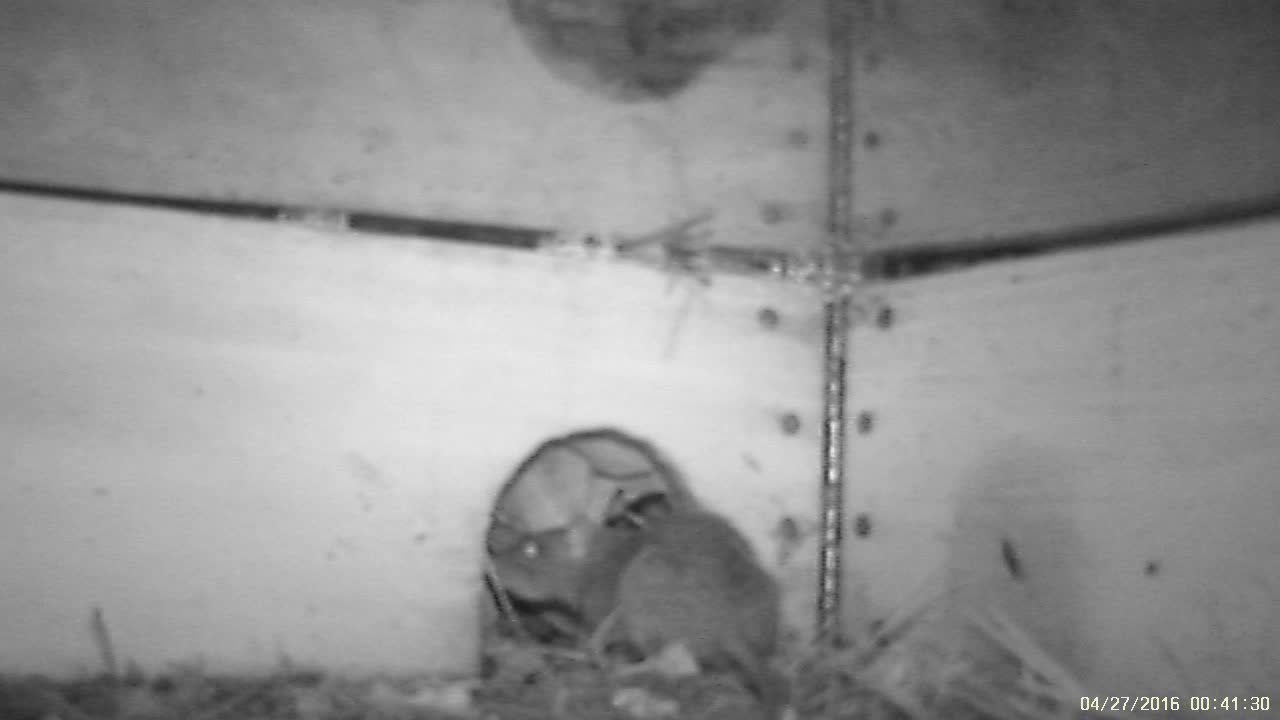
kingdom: Animalia
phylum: Chordata
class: Mammalia
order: Rodentia
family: Muridae
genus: Rattus
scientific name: Rattus norvegicus
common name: Brown rat
